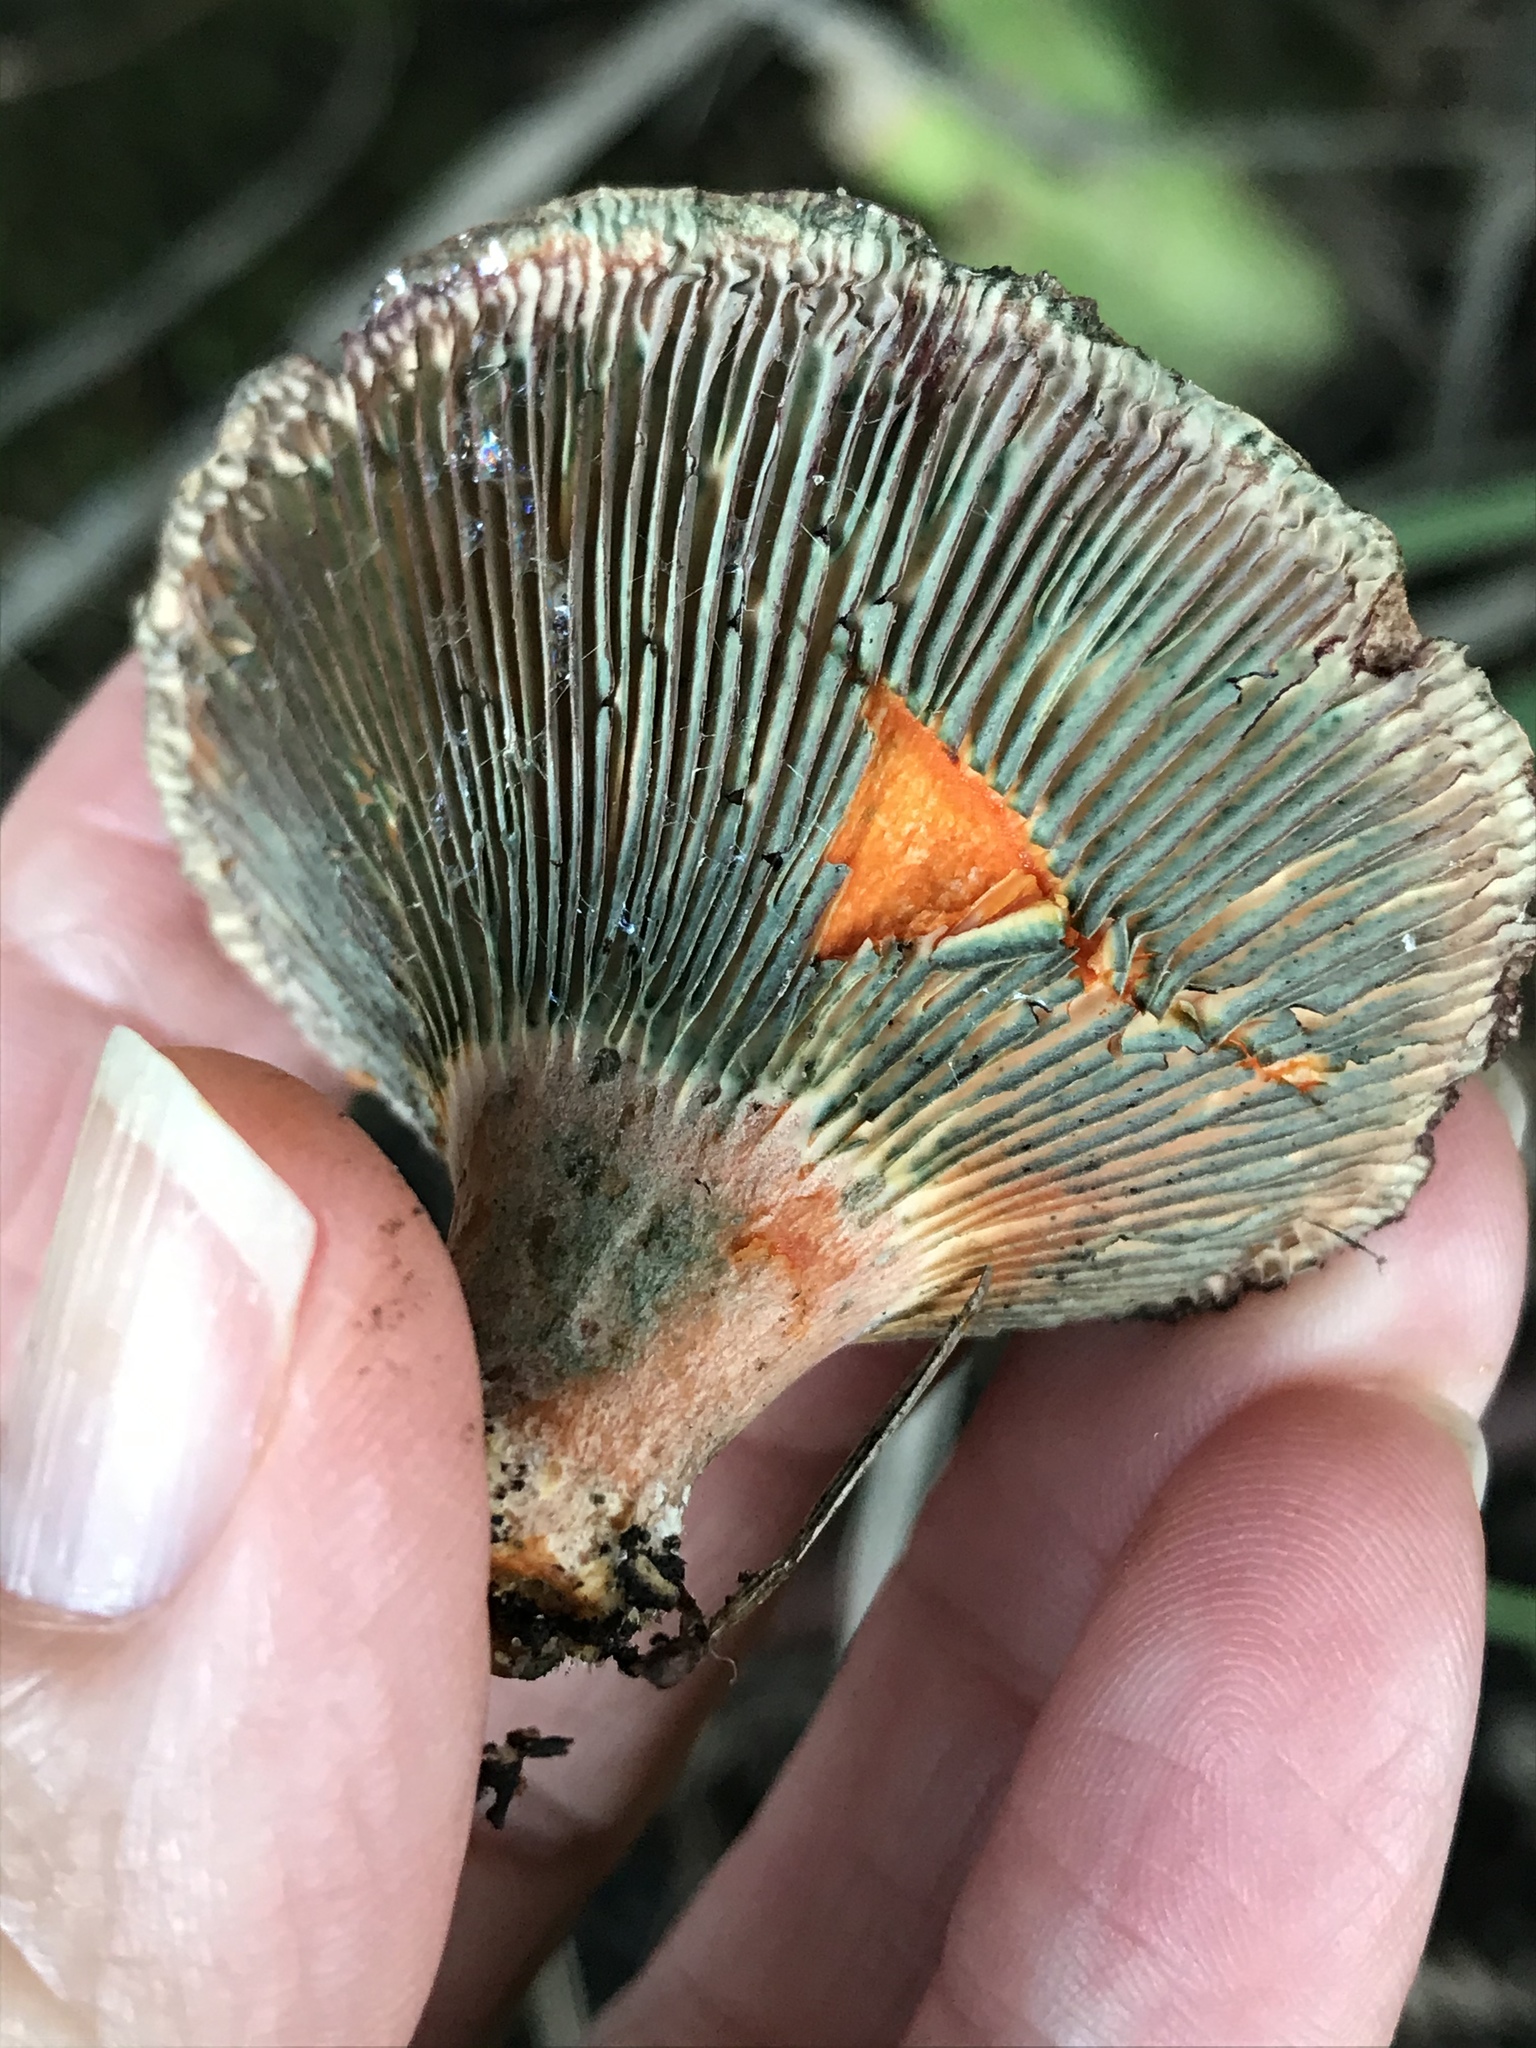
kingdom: Fungi
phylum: Basidiomycota
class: Agaricomycetes
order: Russulales
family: Russulaceae
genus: Lactarius
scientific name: Lactarius deliciosus
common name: Saffron milk-cap
